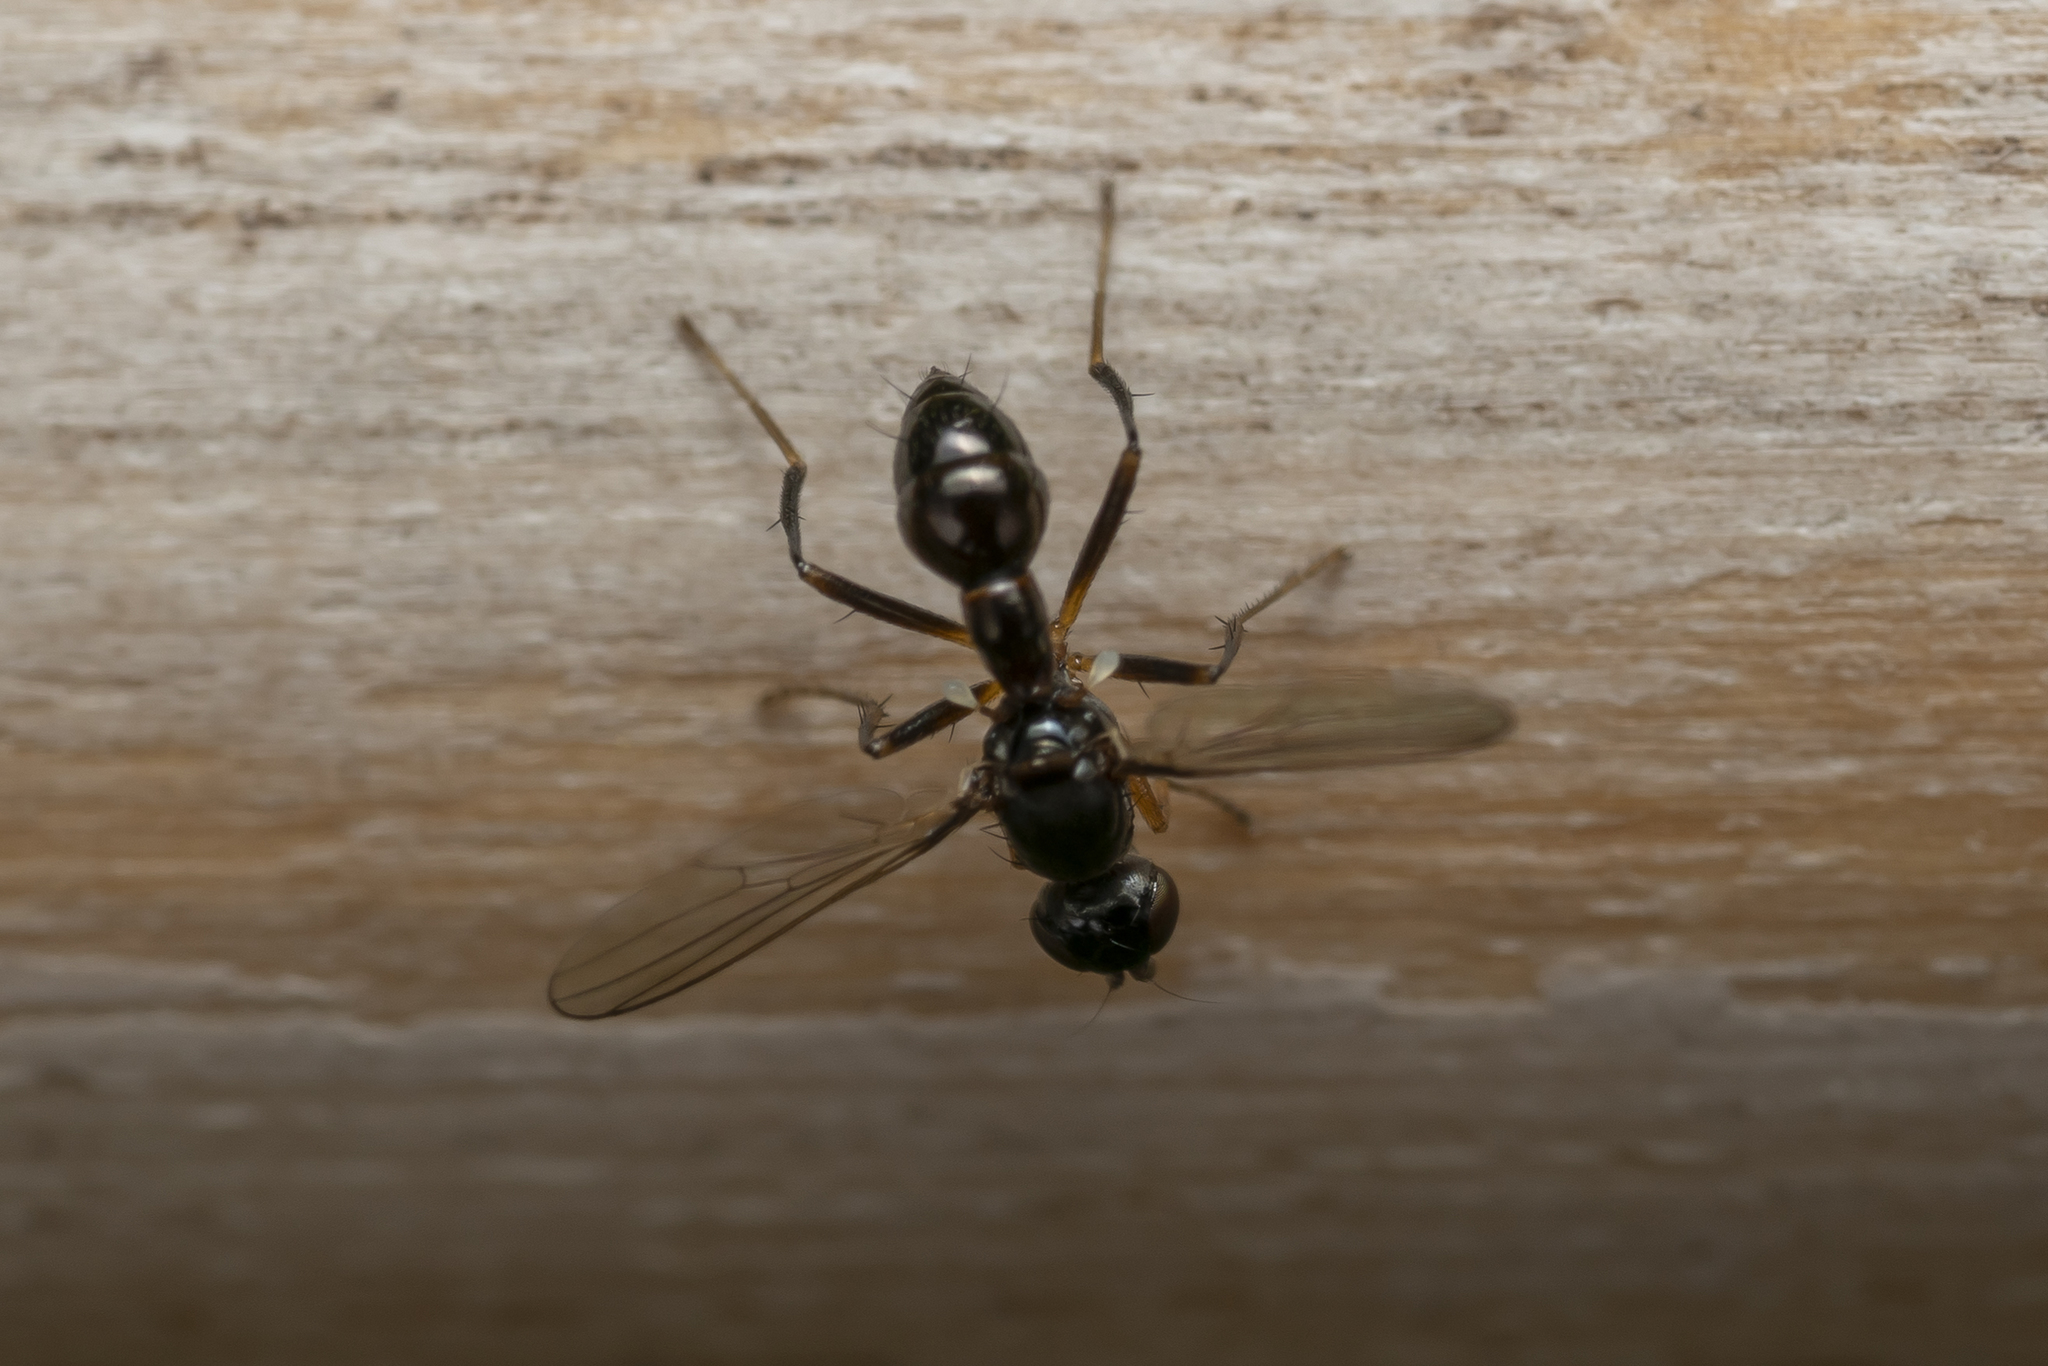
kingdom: Animalia
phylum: Arthropoda
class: Insecta
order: Diptera
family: Sepsidae
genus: Sepsis
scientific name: Sepsis lateralis
